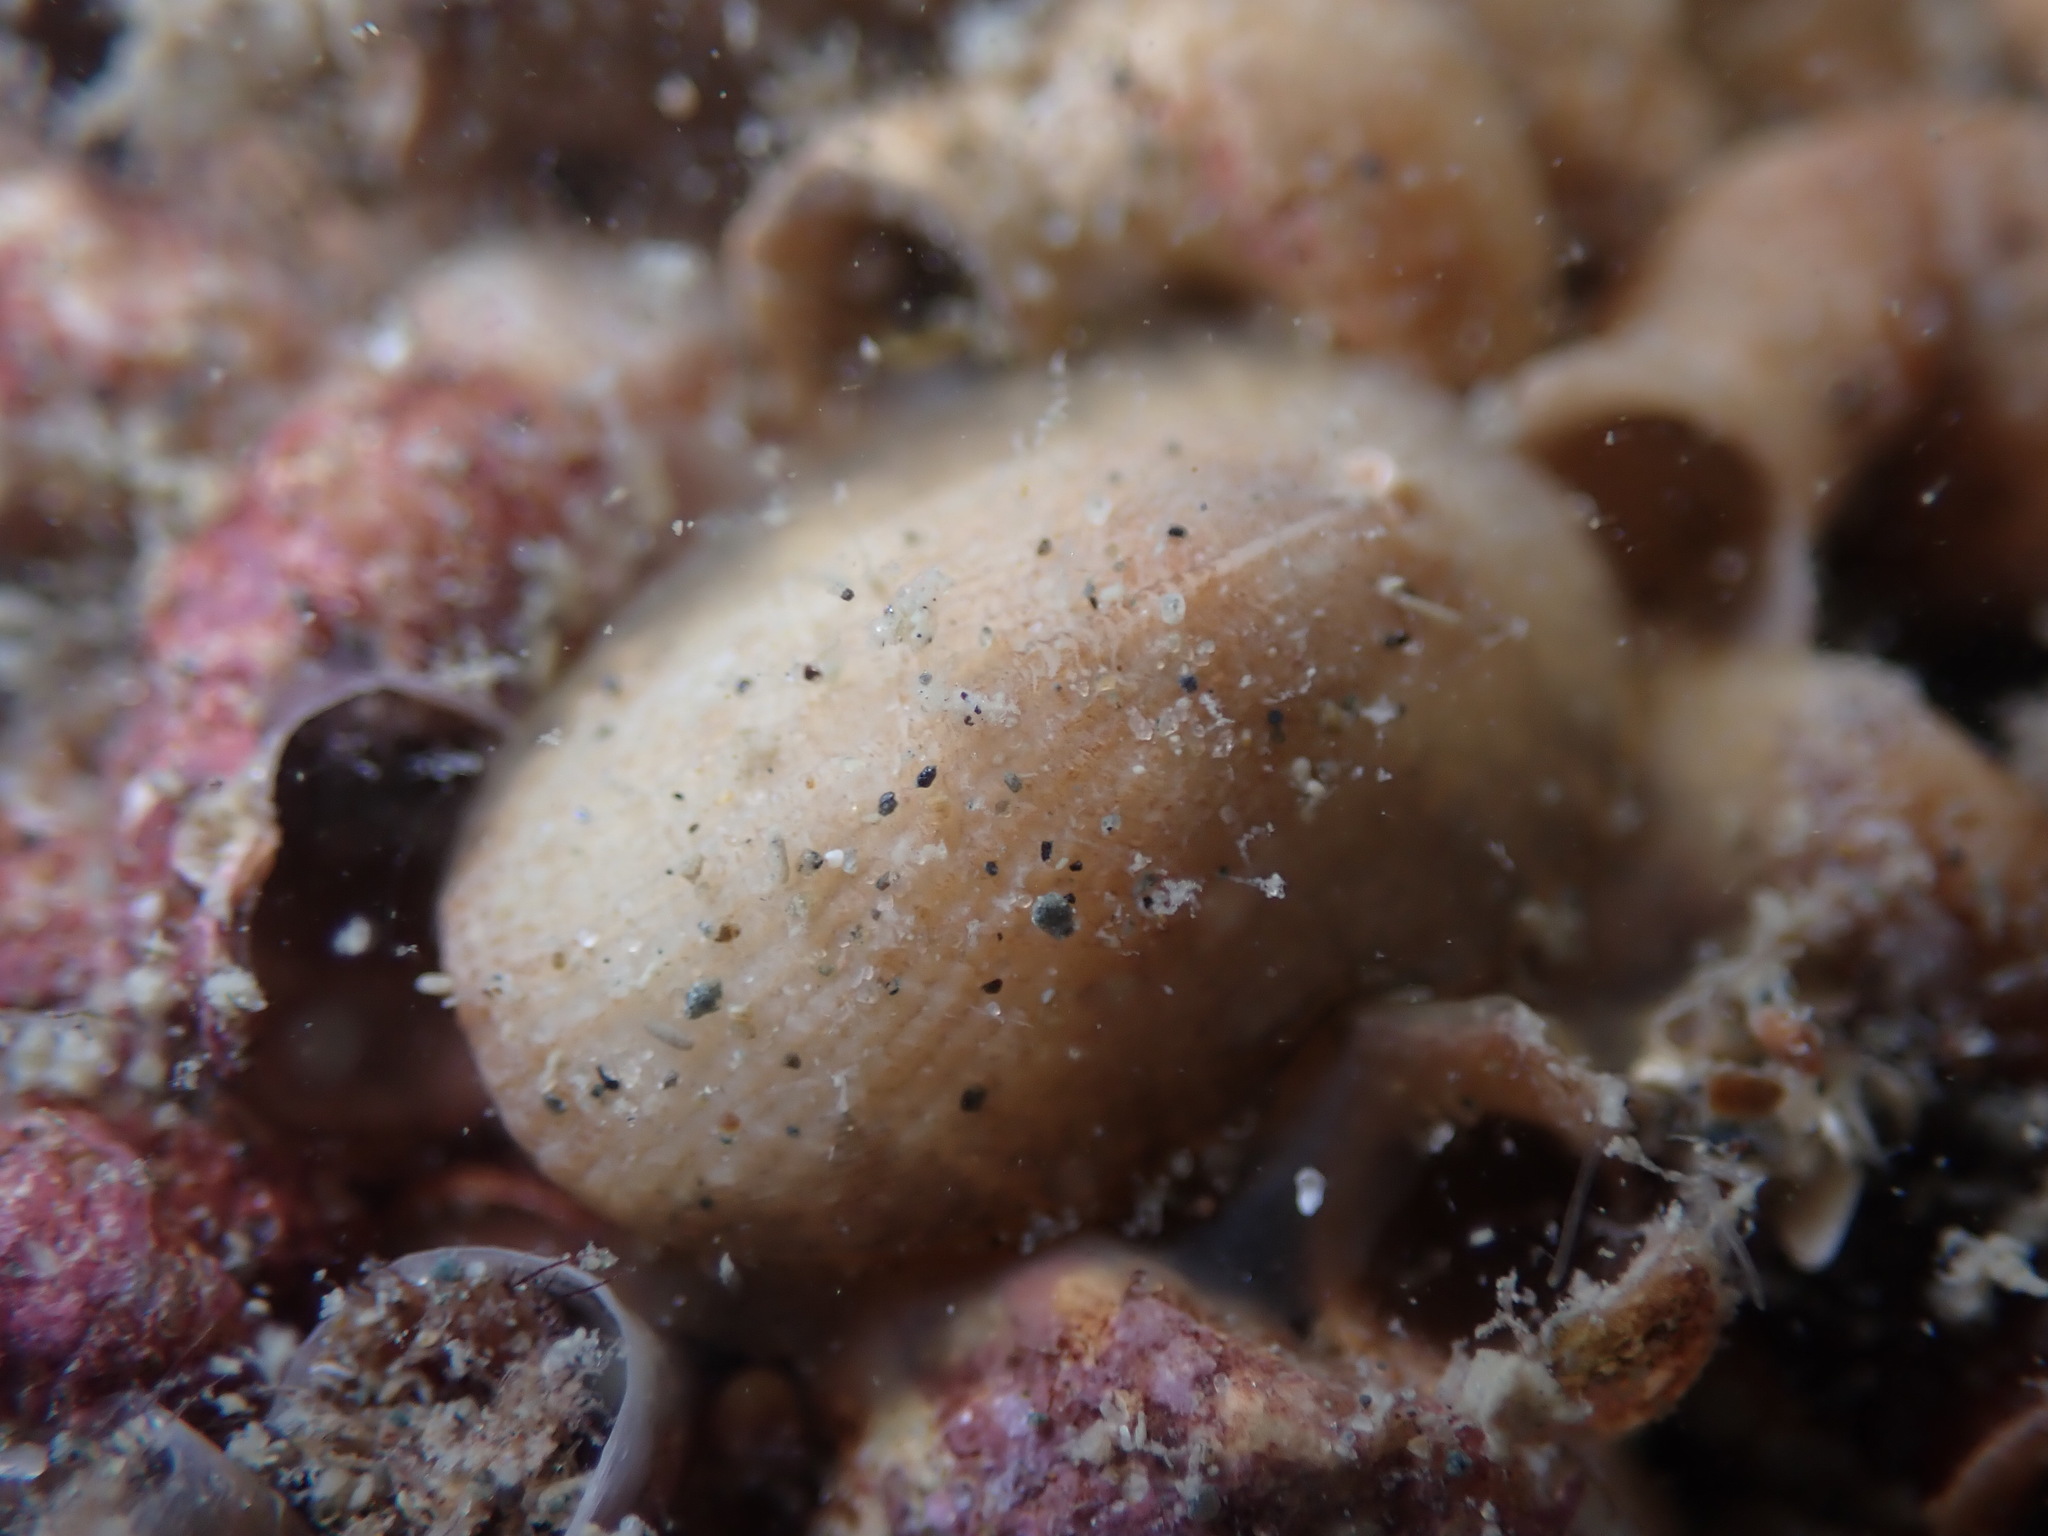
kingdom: Animalia
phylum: Mollusca
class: Gastropoda
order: Lepetellida
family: Fissurellidae
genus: Tugali
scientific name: Tugali suteri
